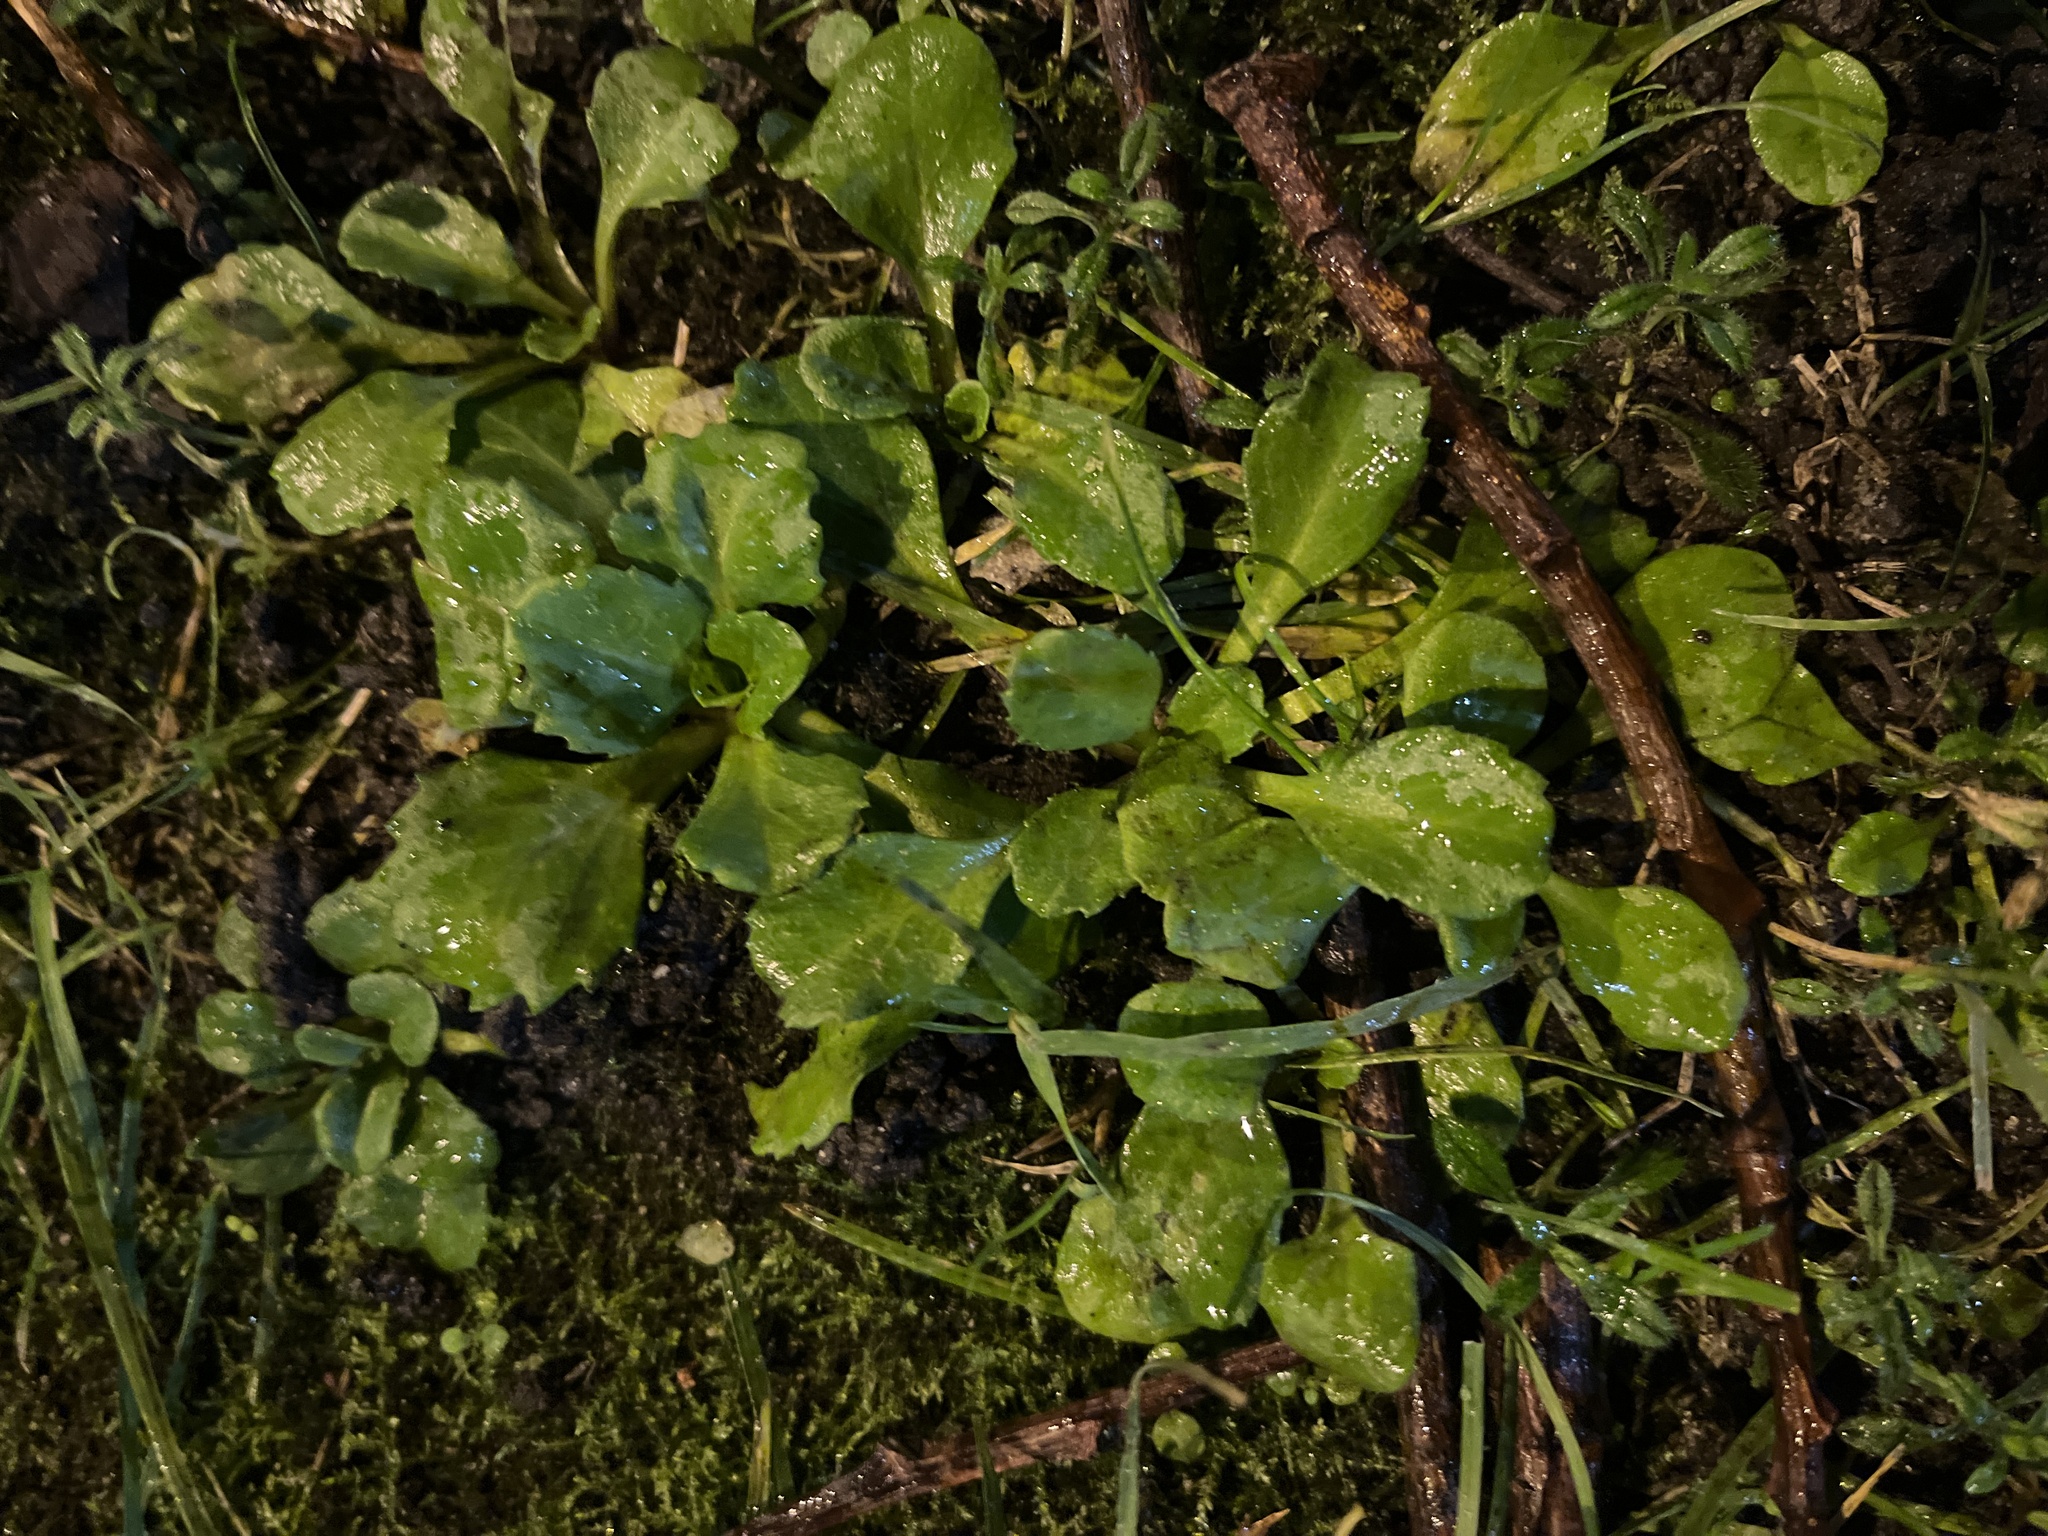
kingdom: Plantae
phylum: Tracheophyta
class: Magnoliopsida
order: Asterales
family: Asteraceae
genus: Bellis
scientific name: Bellis perennis
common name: Lawndaisy
